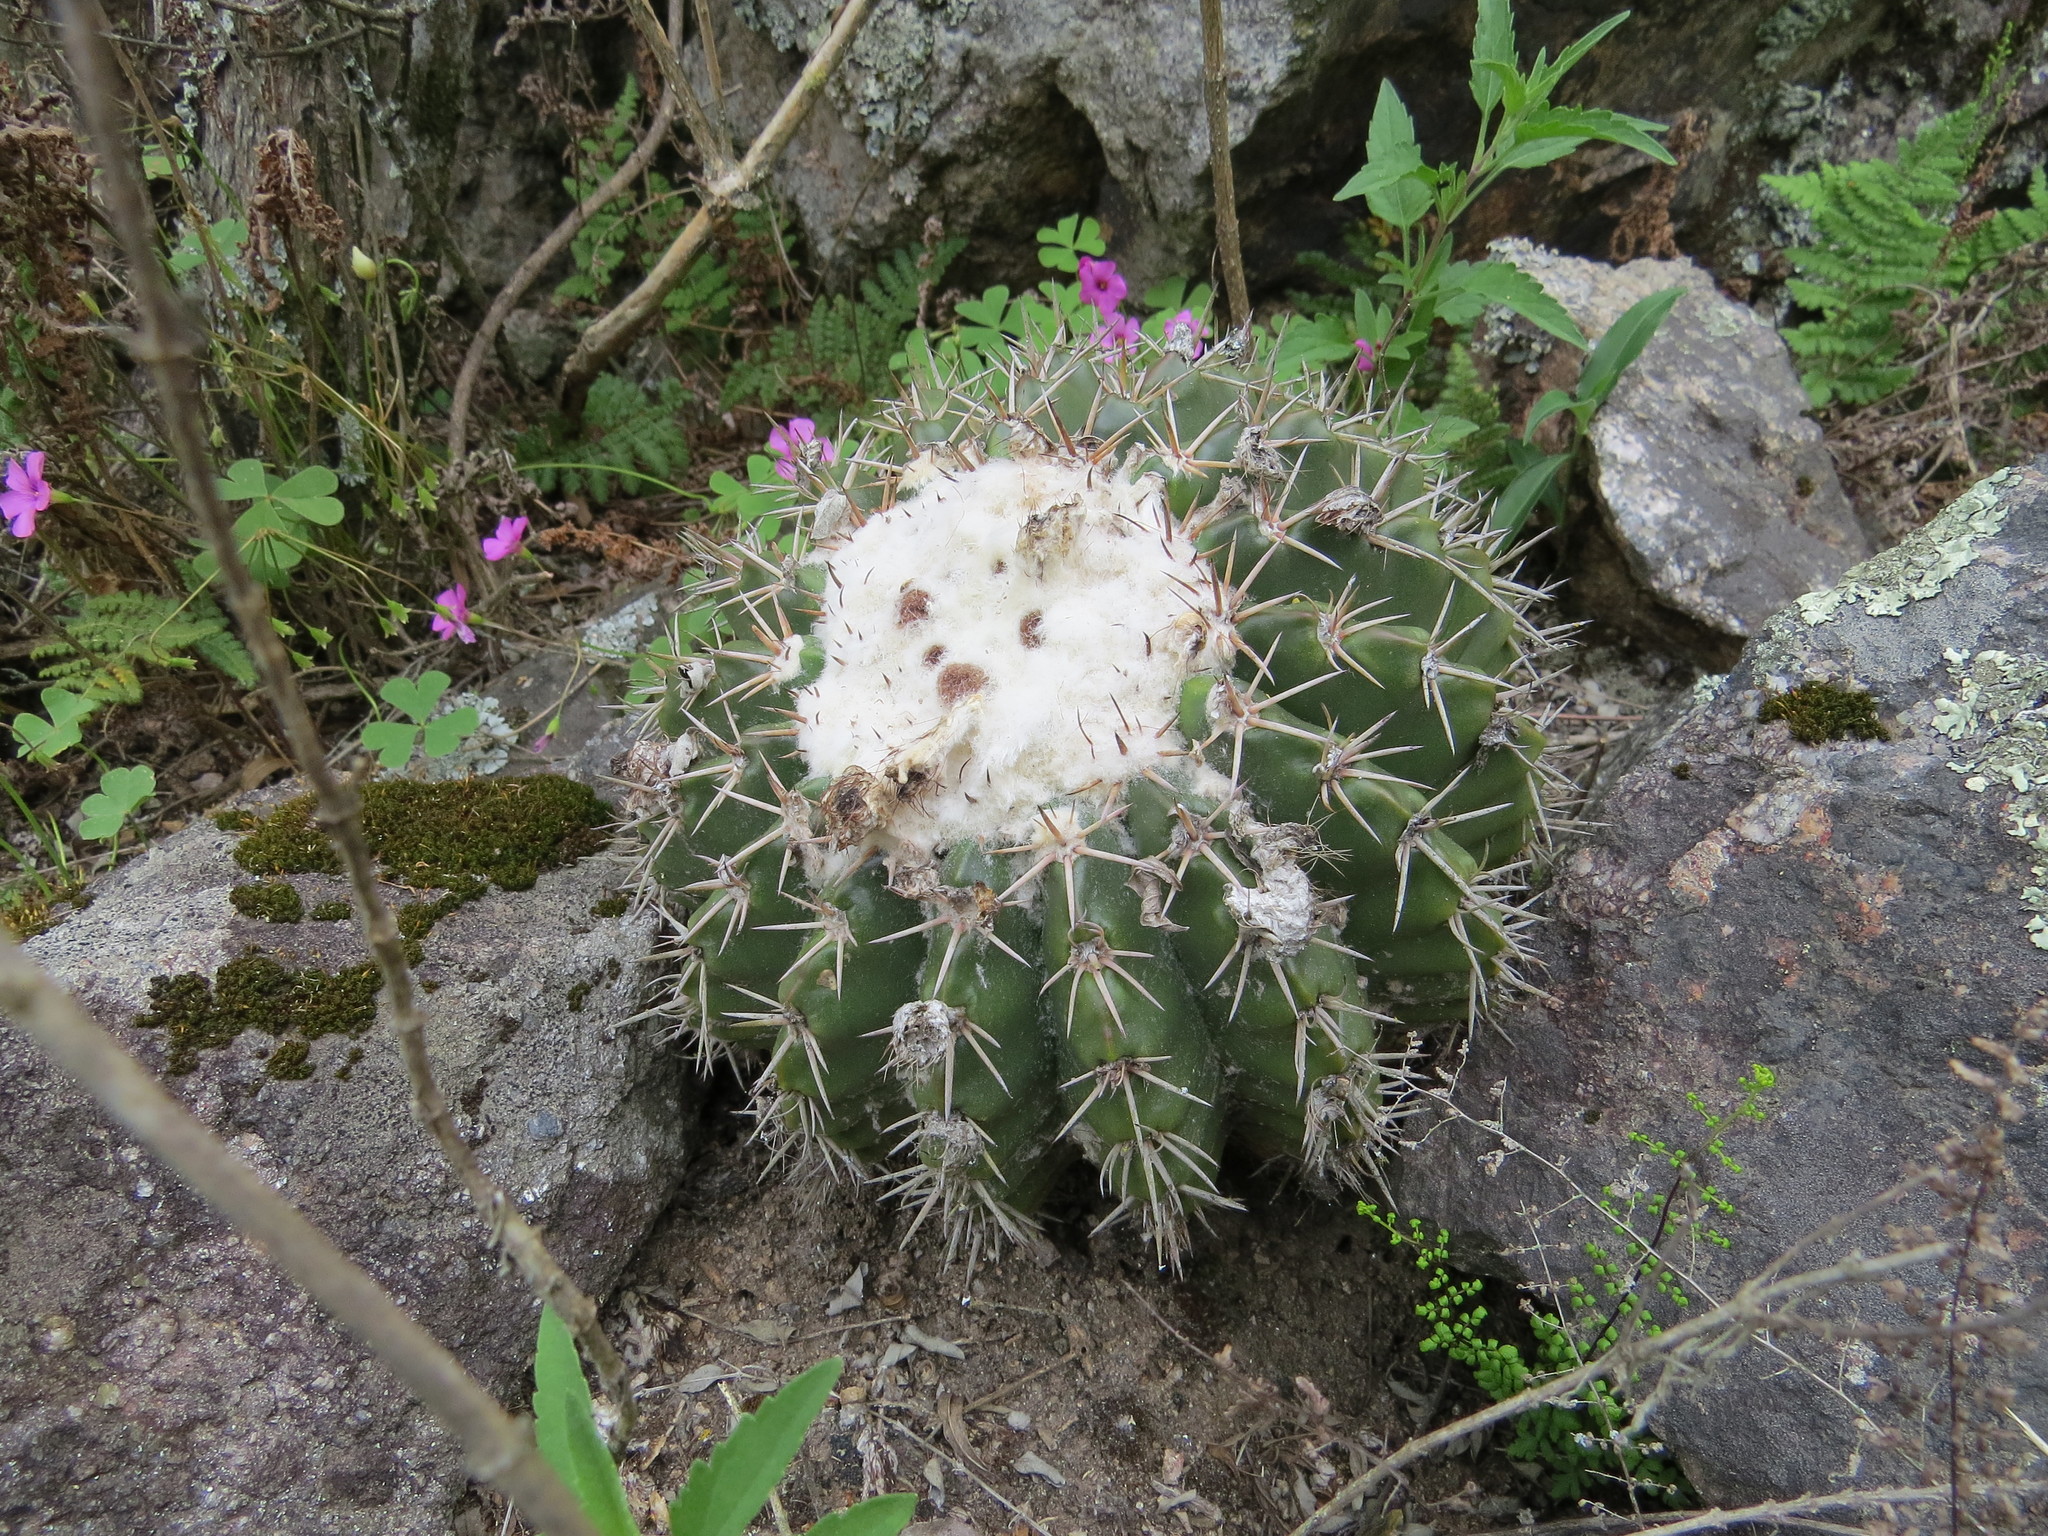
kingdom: Plantae
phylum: Tracheophyta
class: Magnoliopsida
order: Caryophyllales
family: Cactaceae
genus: Parodia
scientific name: Parodia erinacea
